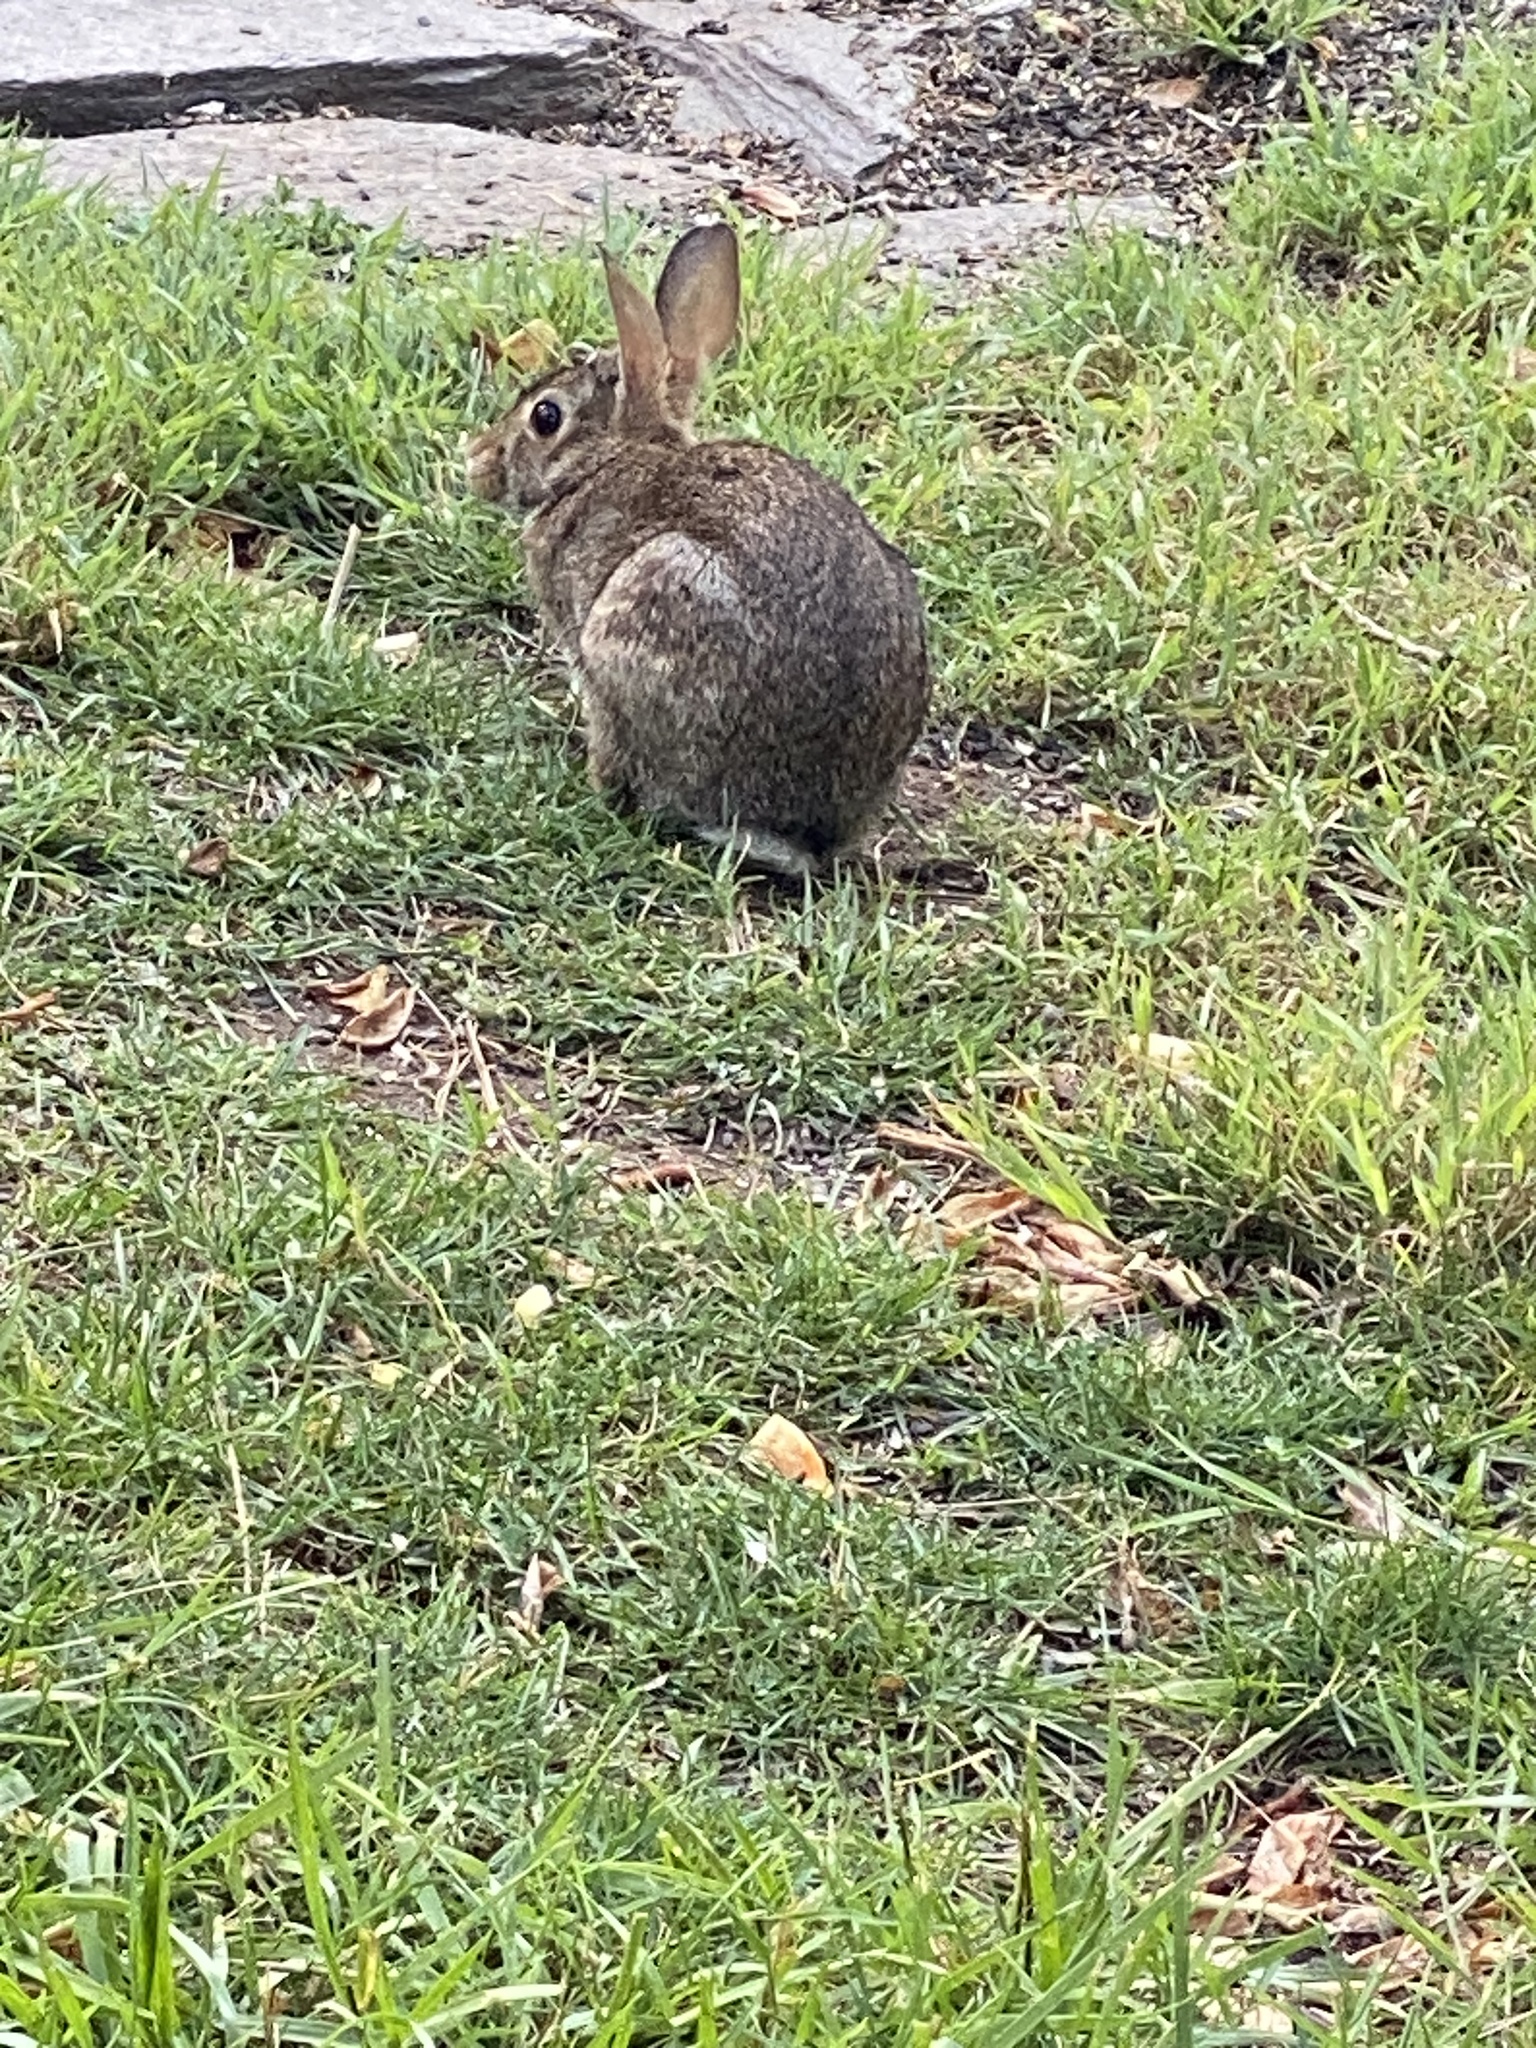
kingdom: Animalia
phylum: Chordata
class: Mammalia
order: Lagomorpha
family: Leporidae
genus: Sylvilagus
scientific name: Sylvilagus floridanus
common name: Eastern cottontail
